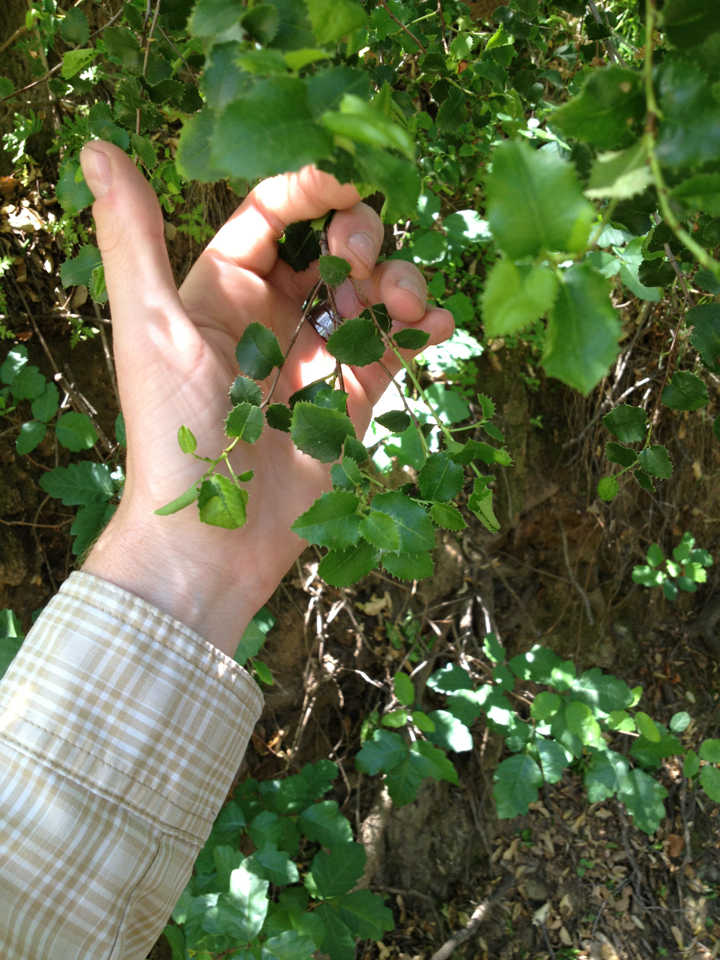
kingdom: Plantae
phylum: Tracheophyta
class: Magnoliopsida
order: Rosales
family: Rosaceae
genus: Prunus
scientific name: Prunus ilicifolia
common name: Hollyleaf cherry
